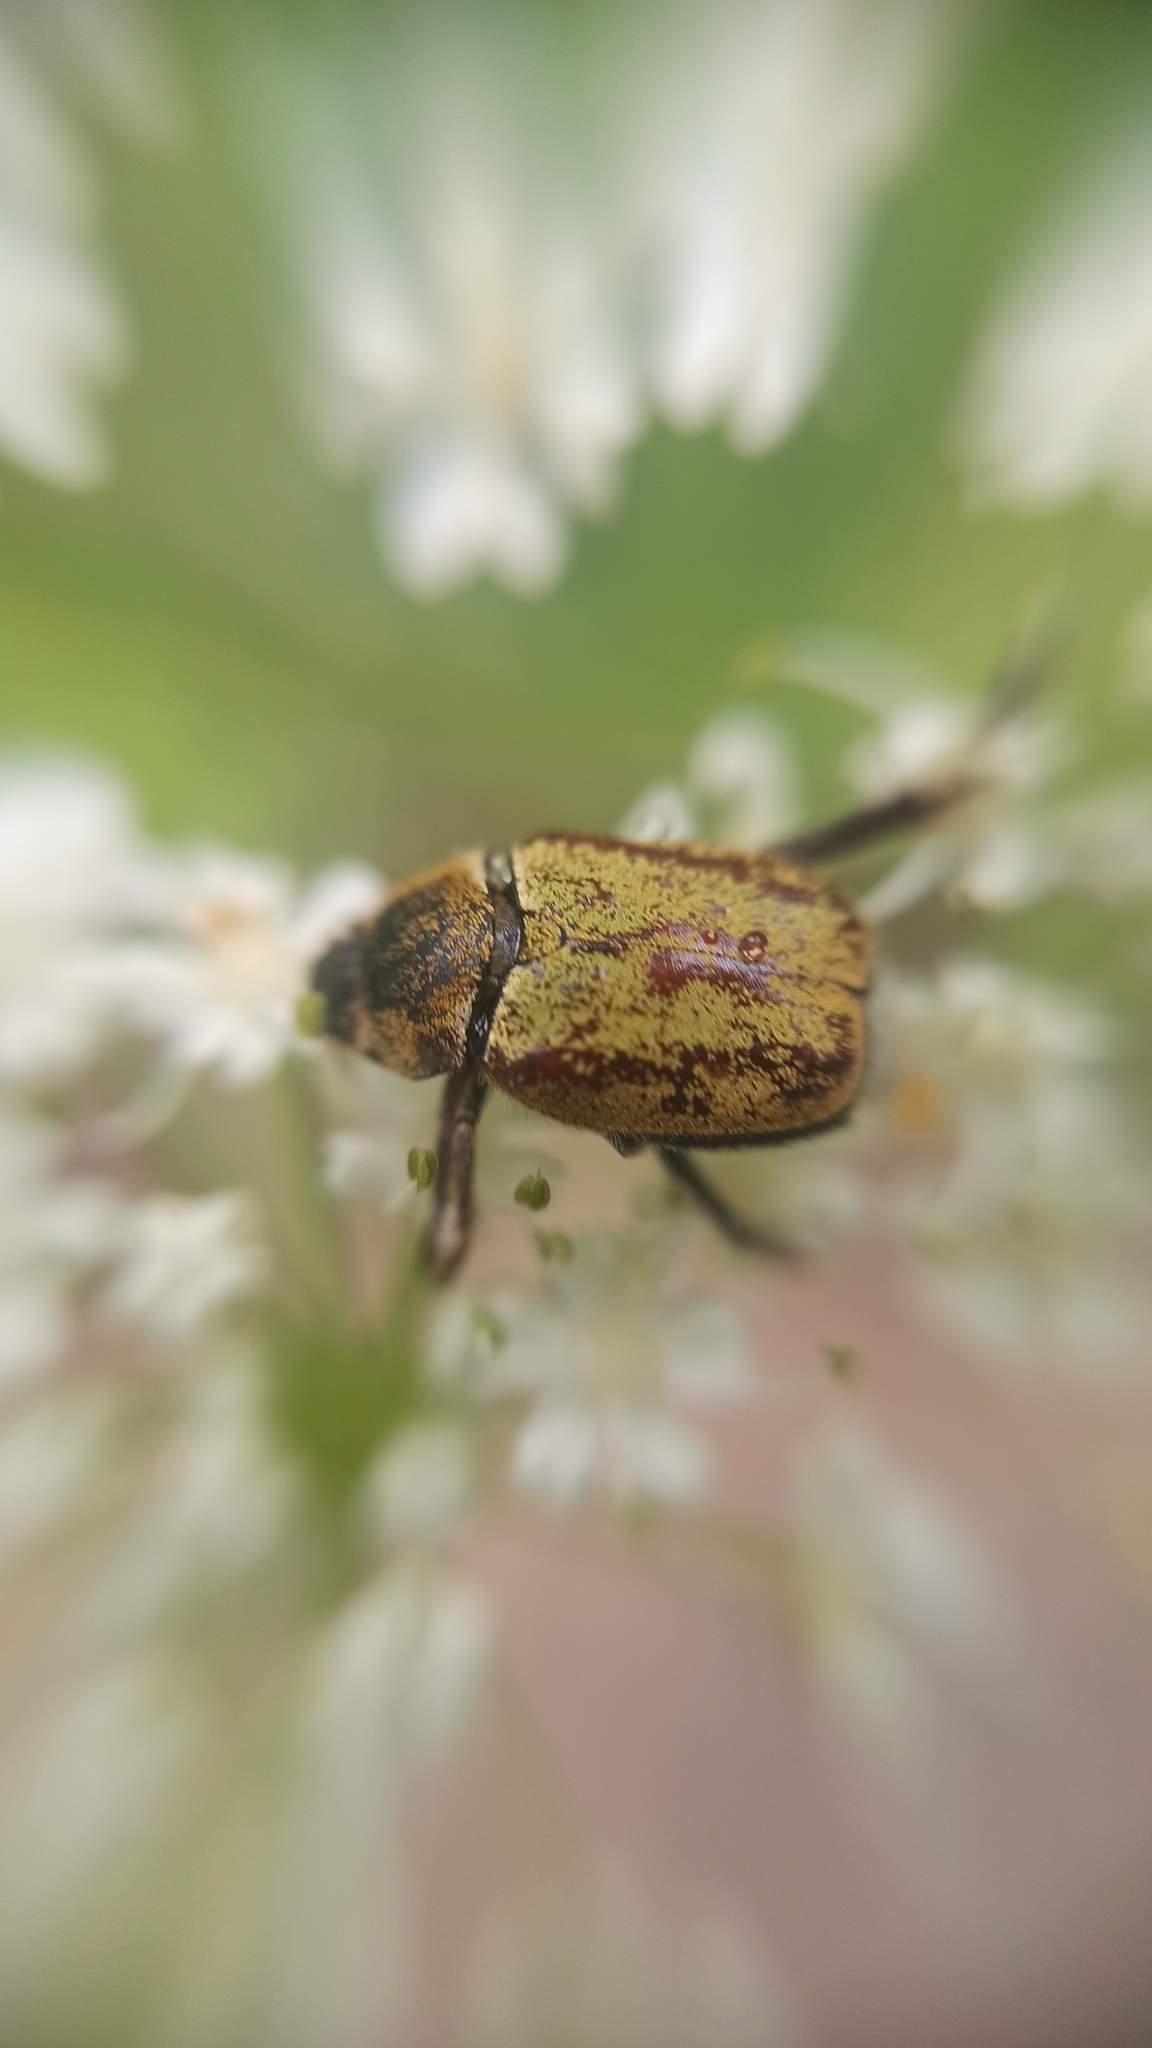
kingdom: Animalia
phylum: Arthropoda
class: Insecta
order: Coleoptera
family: Scarabaeidae
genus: Hoplia
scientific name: Hoplia argentea
